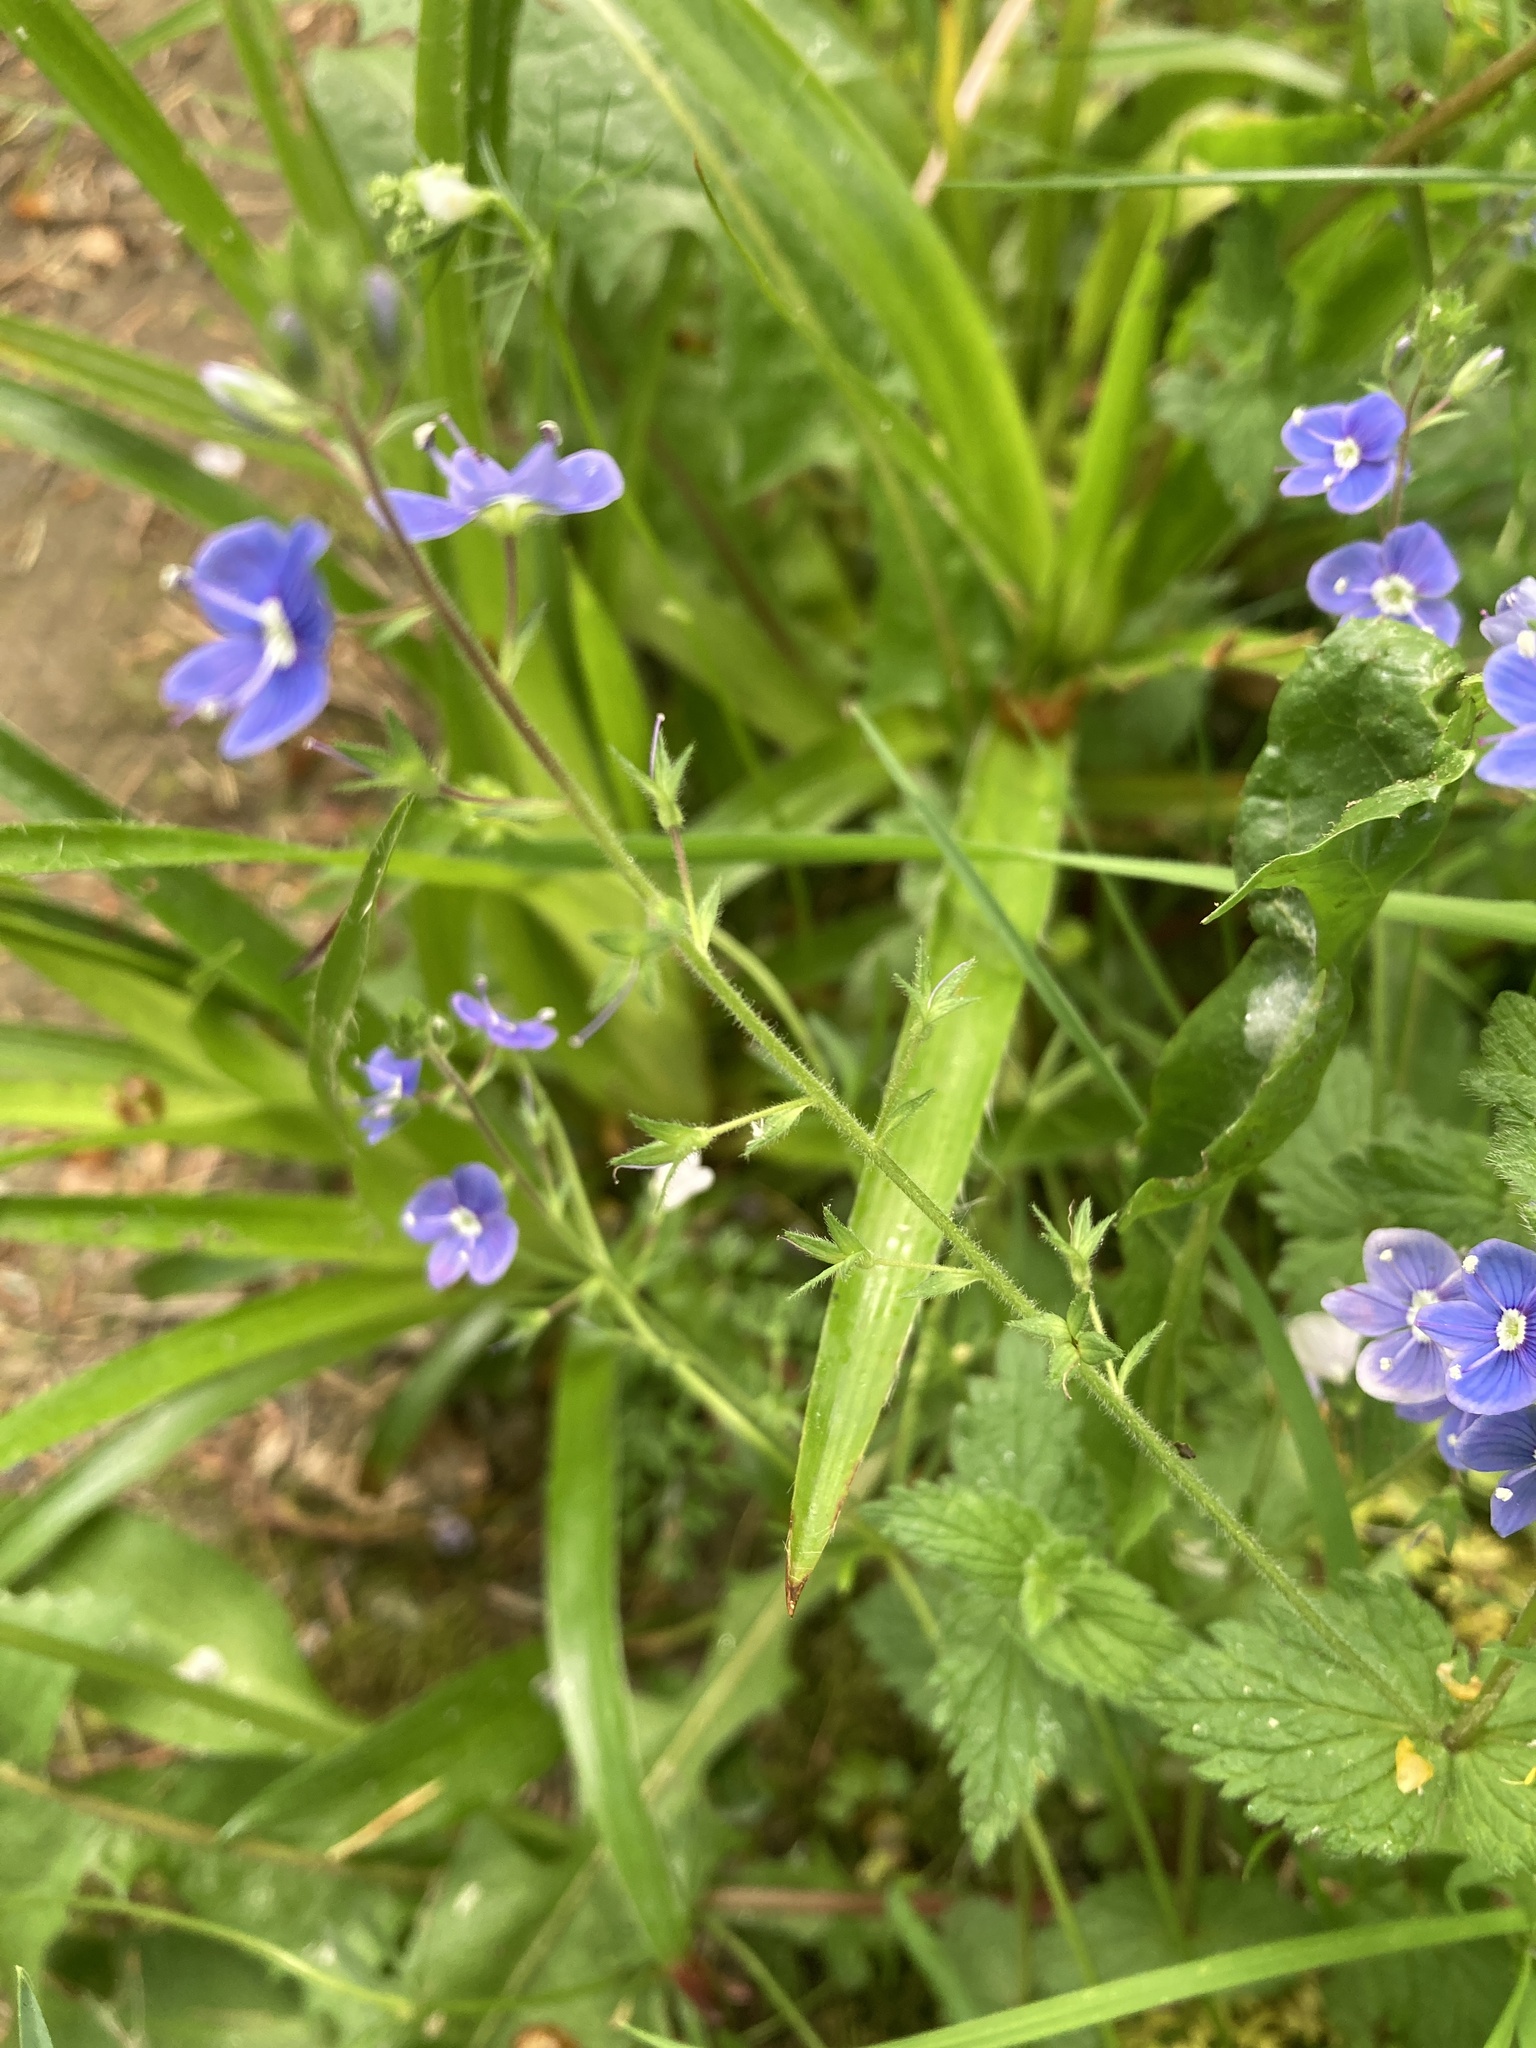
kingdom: Plantae
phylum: Tracheophyta
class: Magnoliopsida
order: Lamiales
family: Plantaginaceae
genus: Veronica
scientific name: Veronica chamaedrys
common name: Germander speedwell
